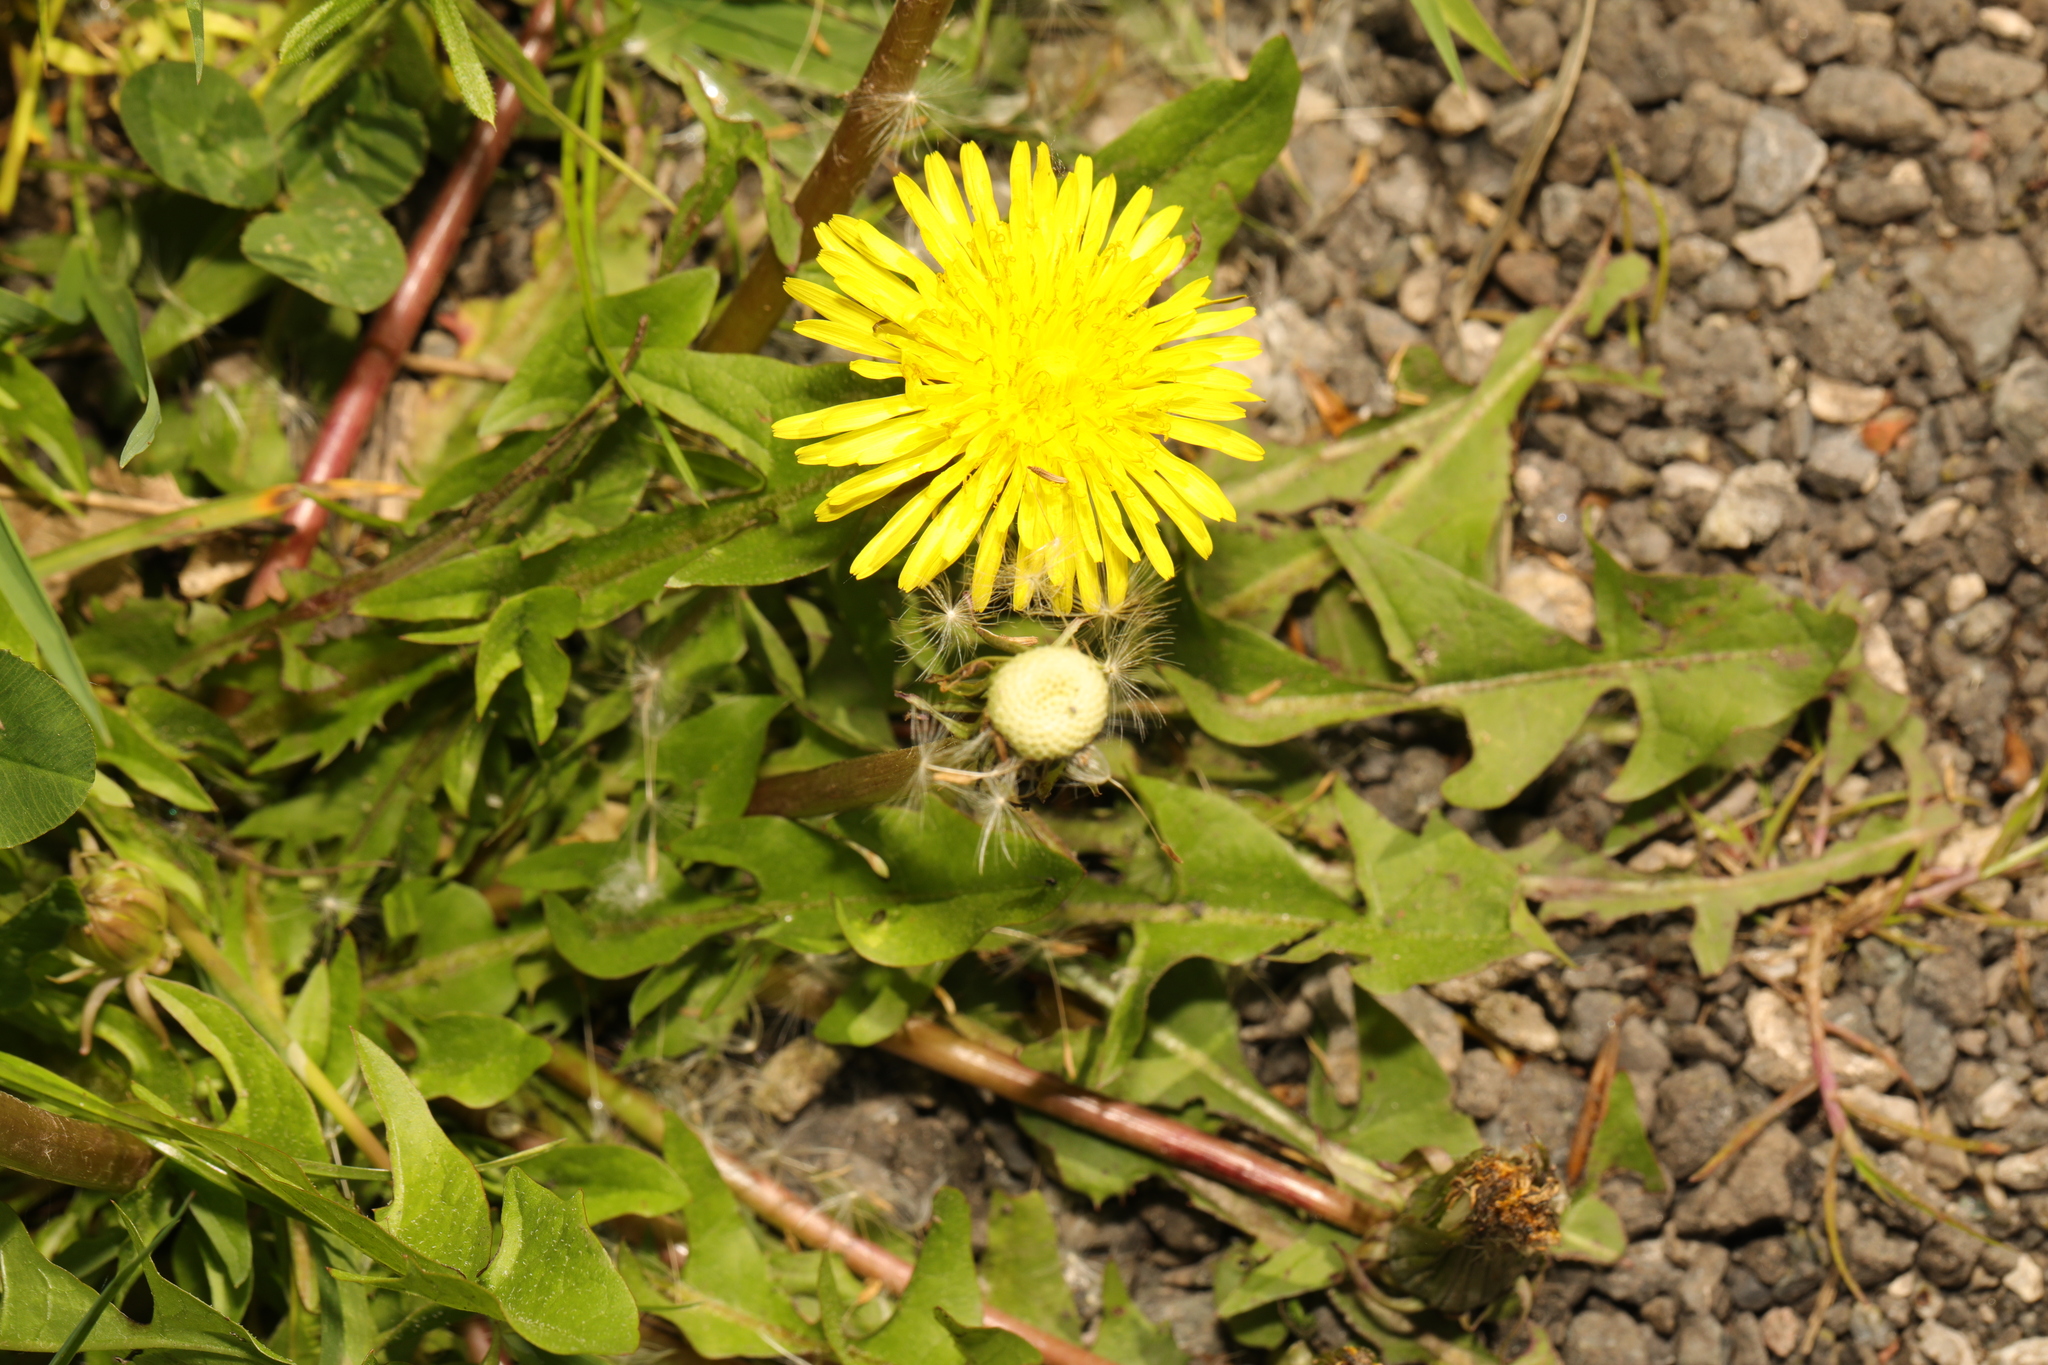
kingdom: Plantae
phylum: Tracheophyta
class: Magnoliopsida
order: Asterales
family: Asteraceae
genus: Taraxacum
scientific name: Taraxacum officinale
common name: Common dandelion
